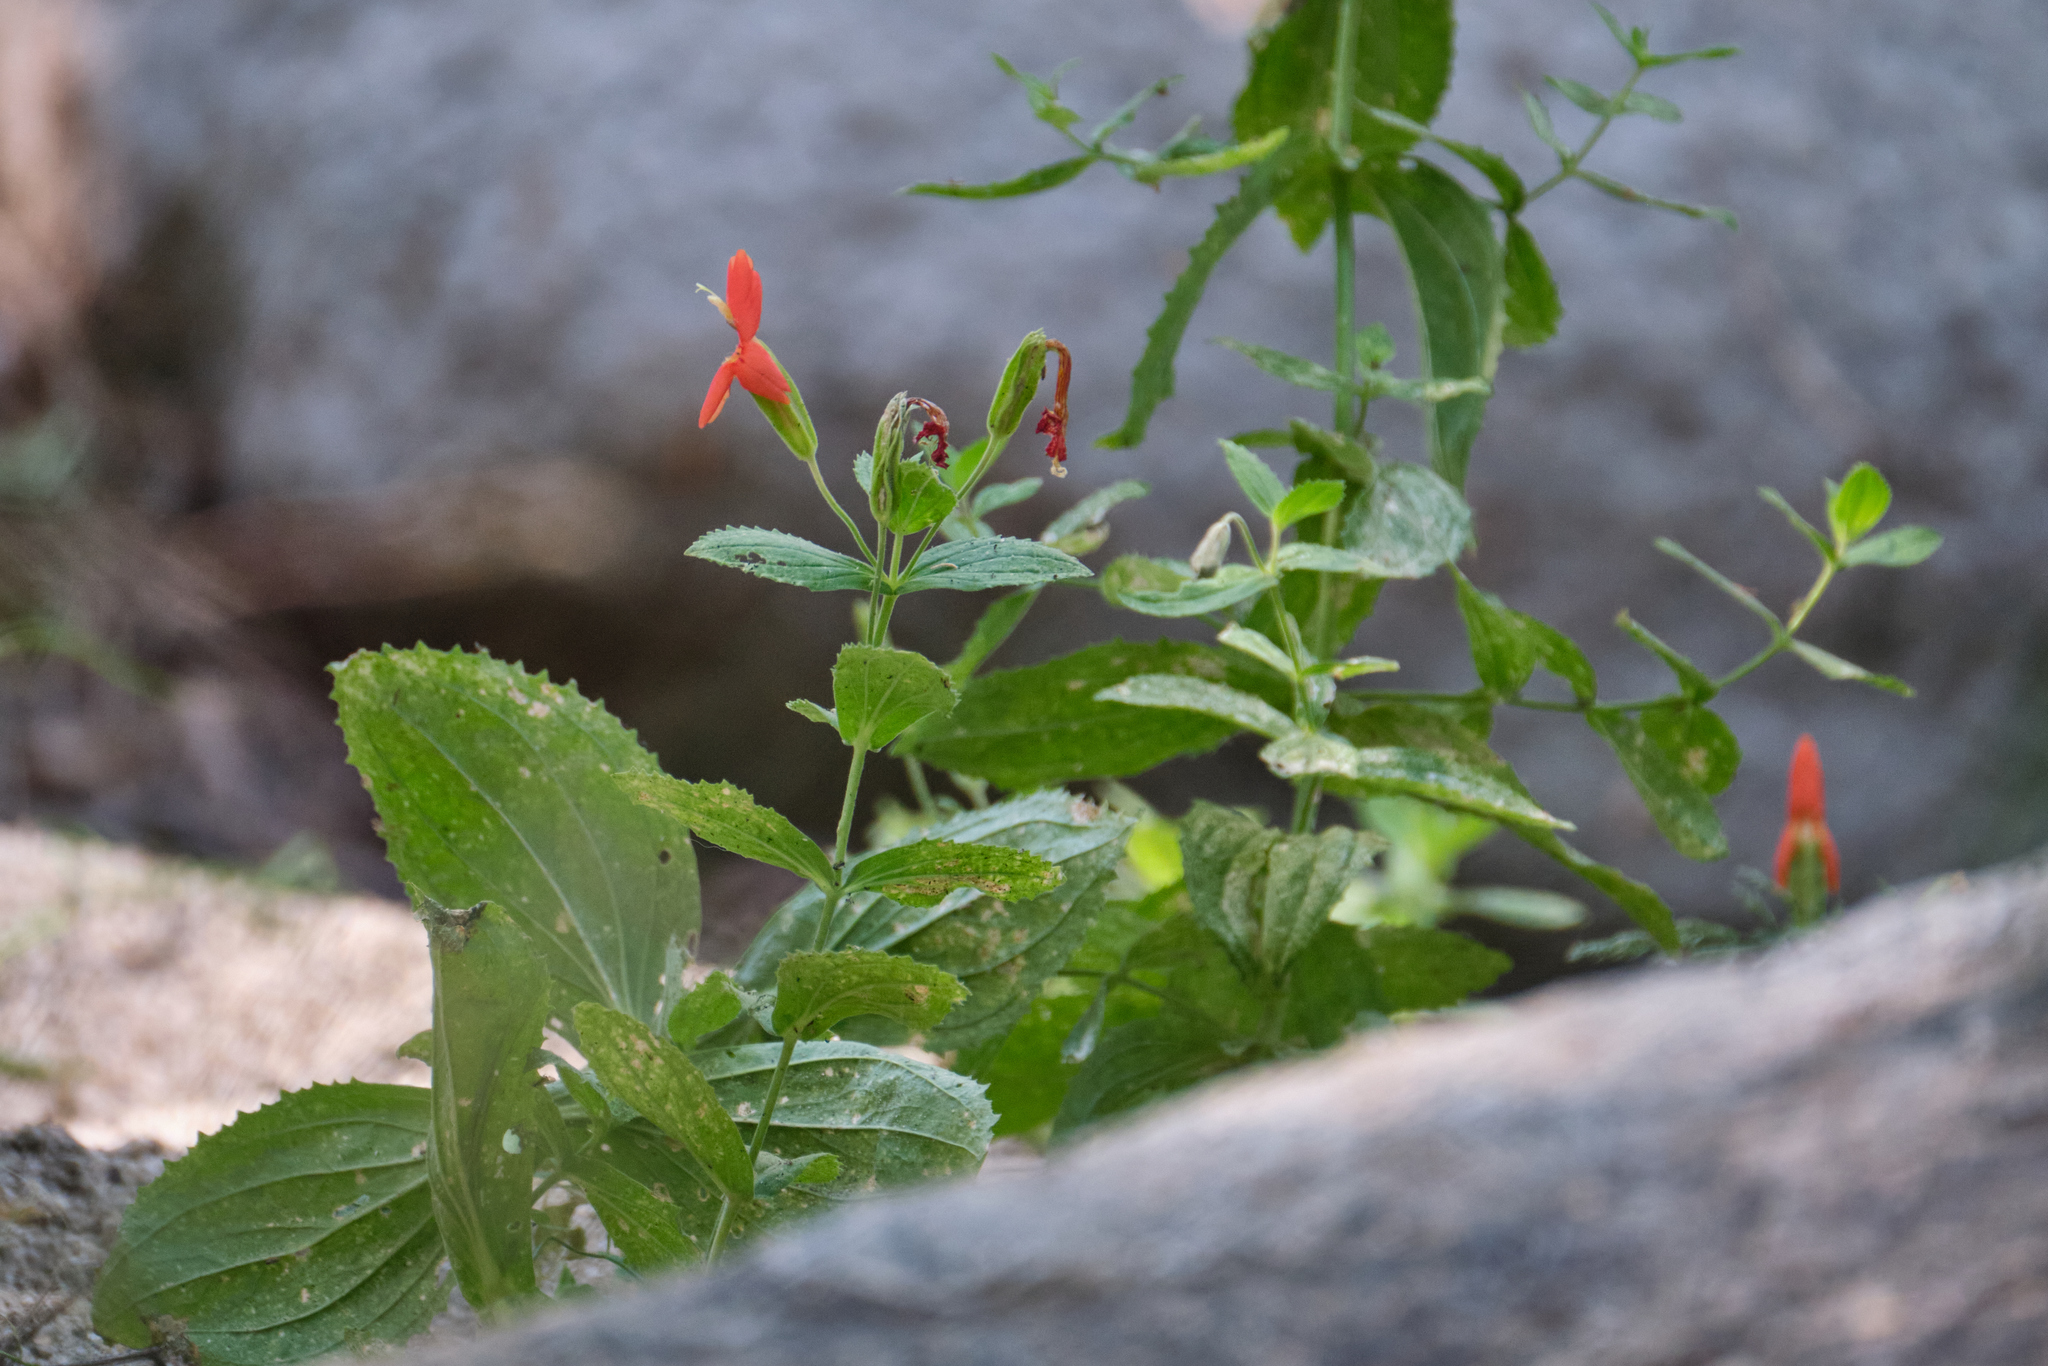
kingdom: Plantae
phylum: Tracheophyta
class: Magnoliopsida
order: Lamiales
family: Phrymaceae
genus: Erythranthe
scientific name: Erythranthe cardinalis
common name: Scarlet monkey-flower
